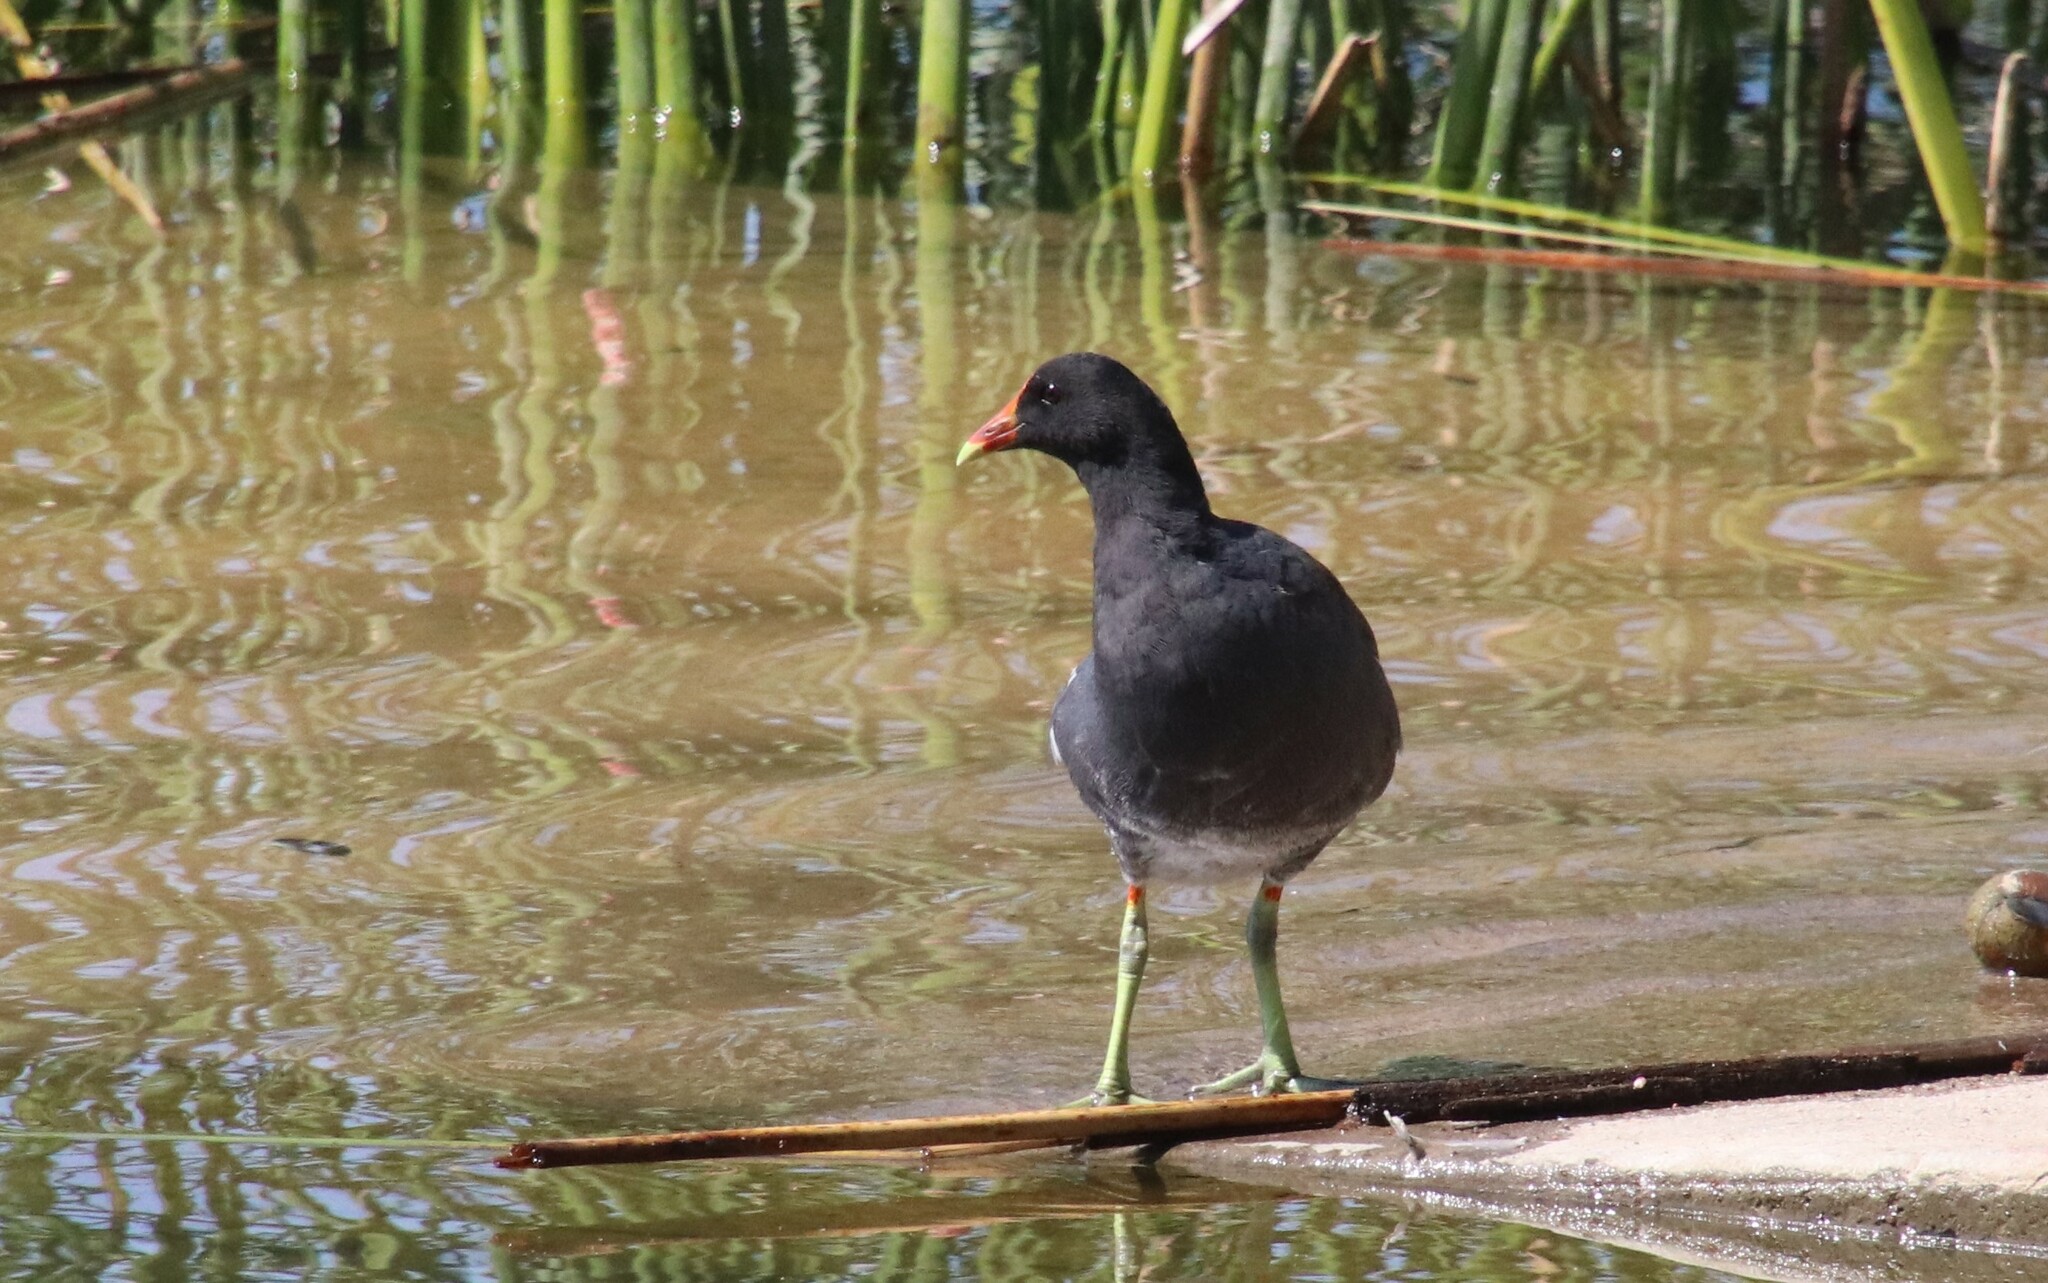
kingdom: Animalia
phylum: Chordata
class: Aves
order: Gruiformes
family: Rallidae
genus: Gallinula
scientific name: Gallinula chloropus
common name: Common moorhen
